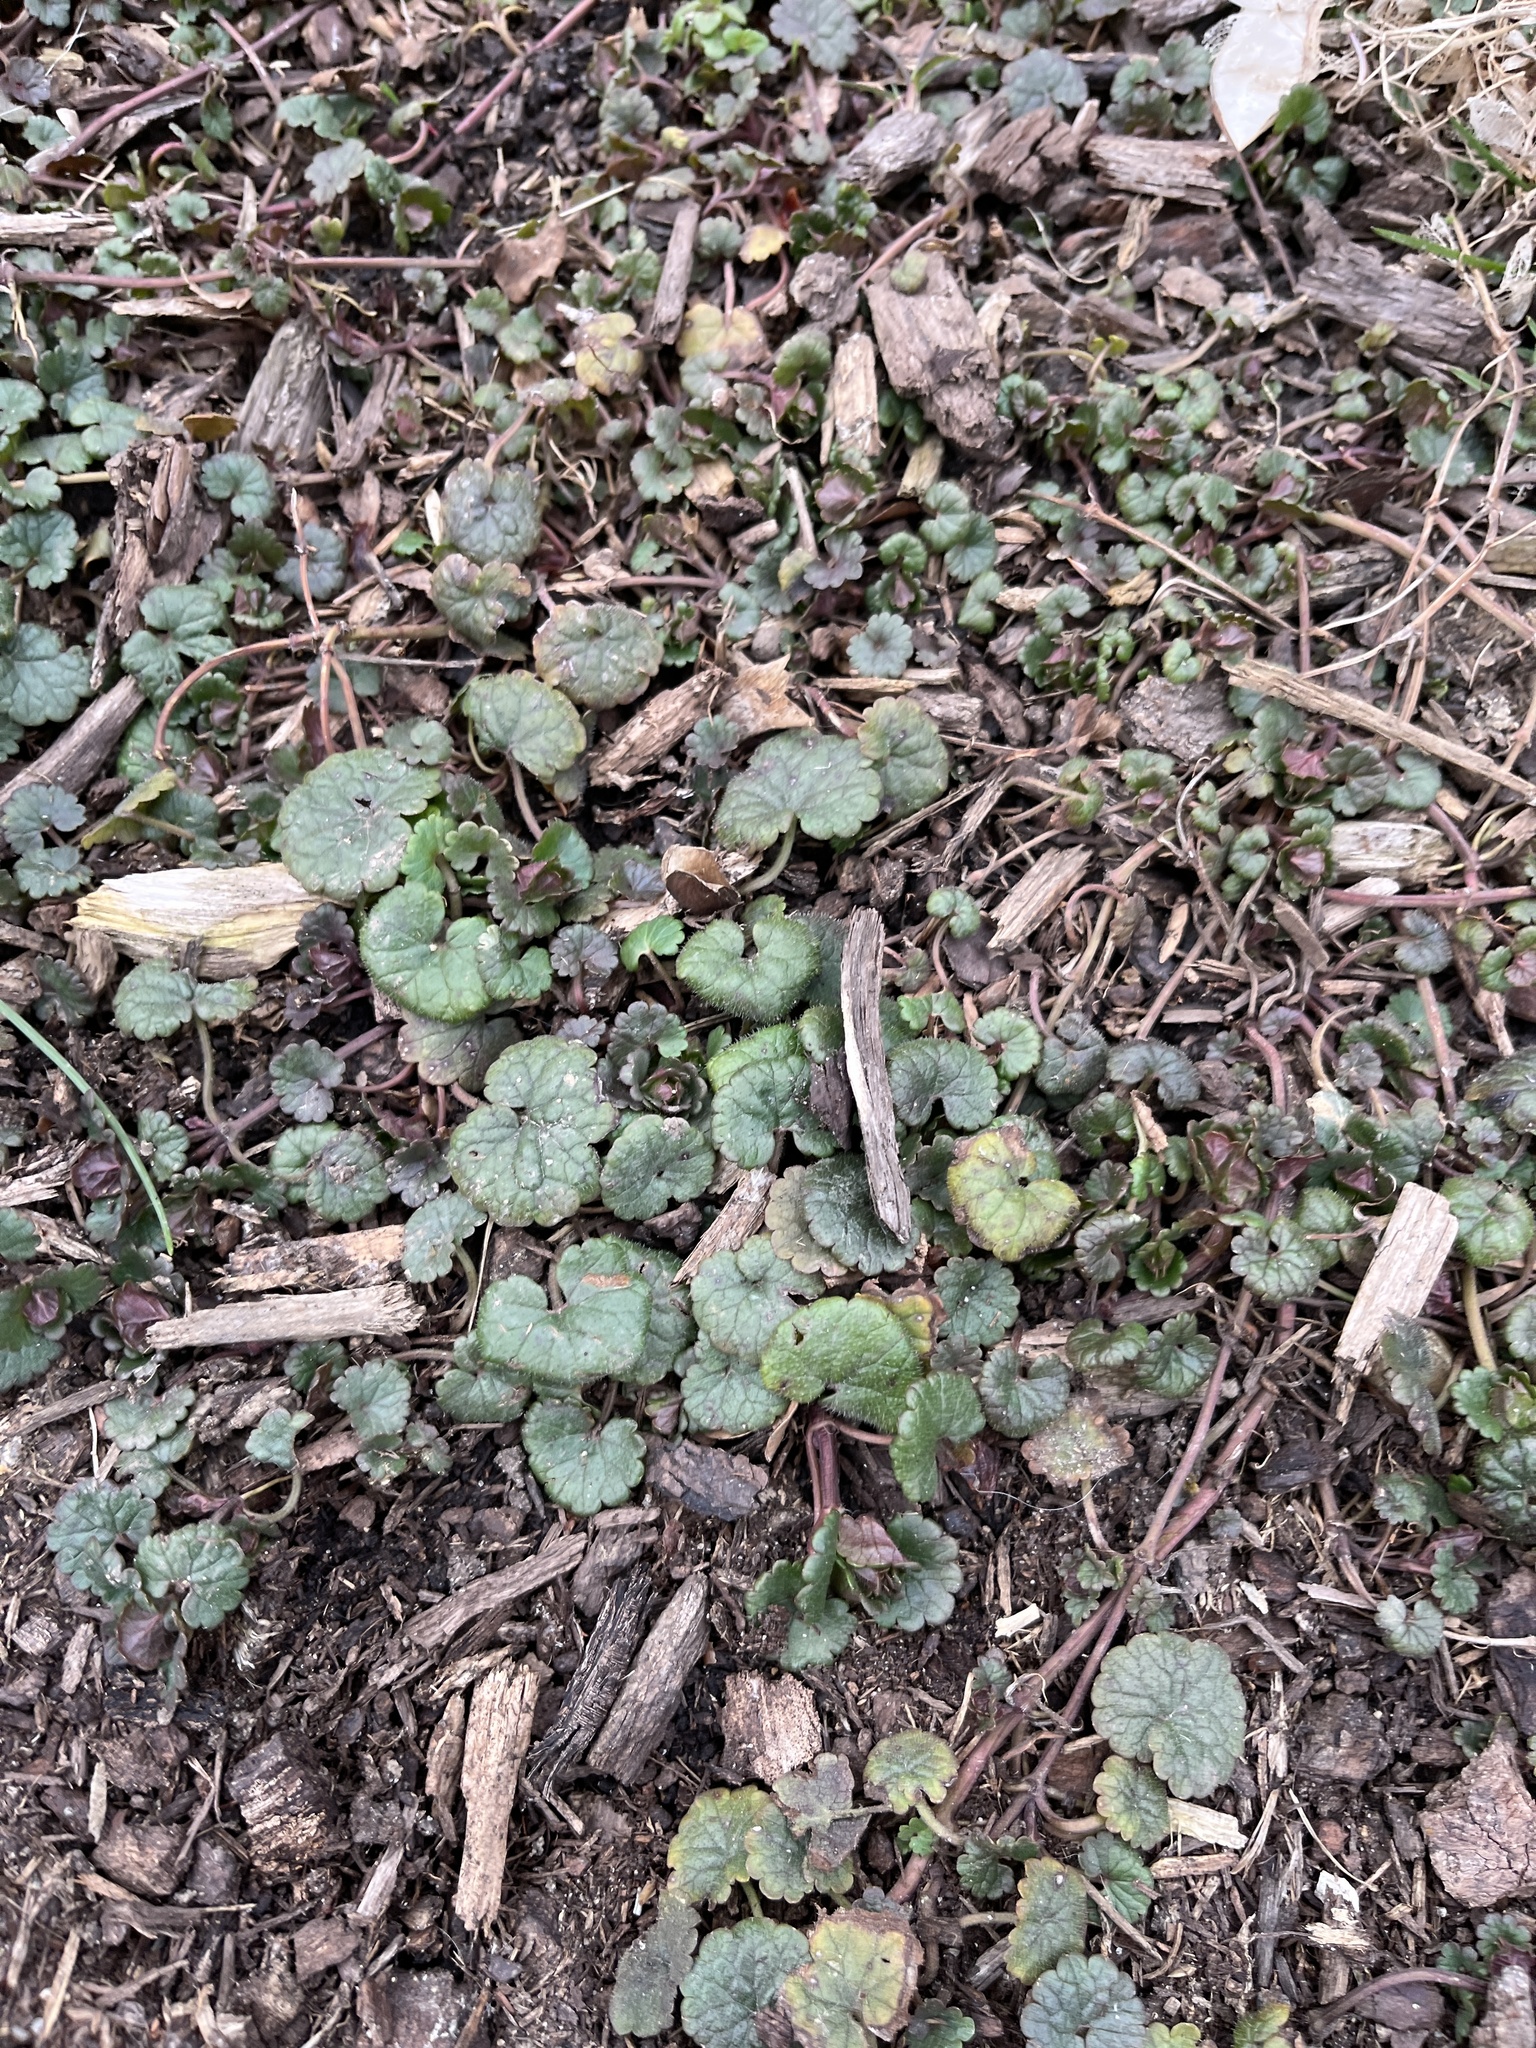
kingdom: Plantae
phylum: Tracheophyta
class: Magnoliopsida
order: Lamiales
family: Lamiaceae
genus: Glechoma
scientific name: Glechoma hederacea
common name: Ground ivy
